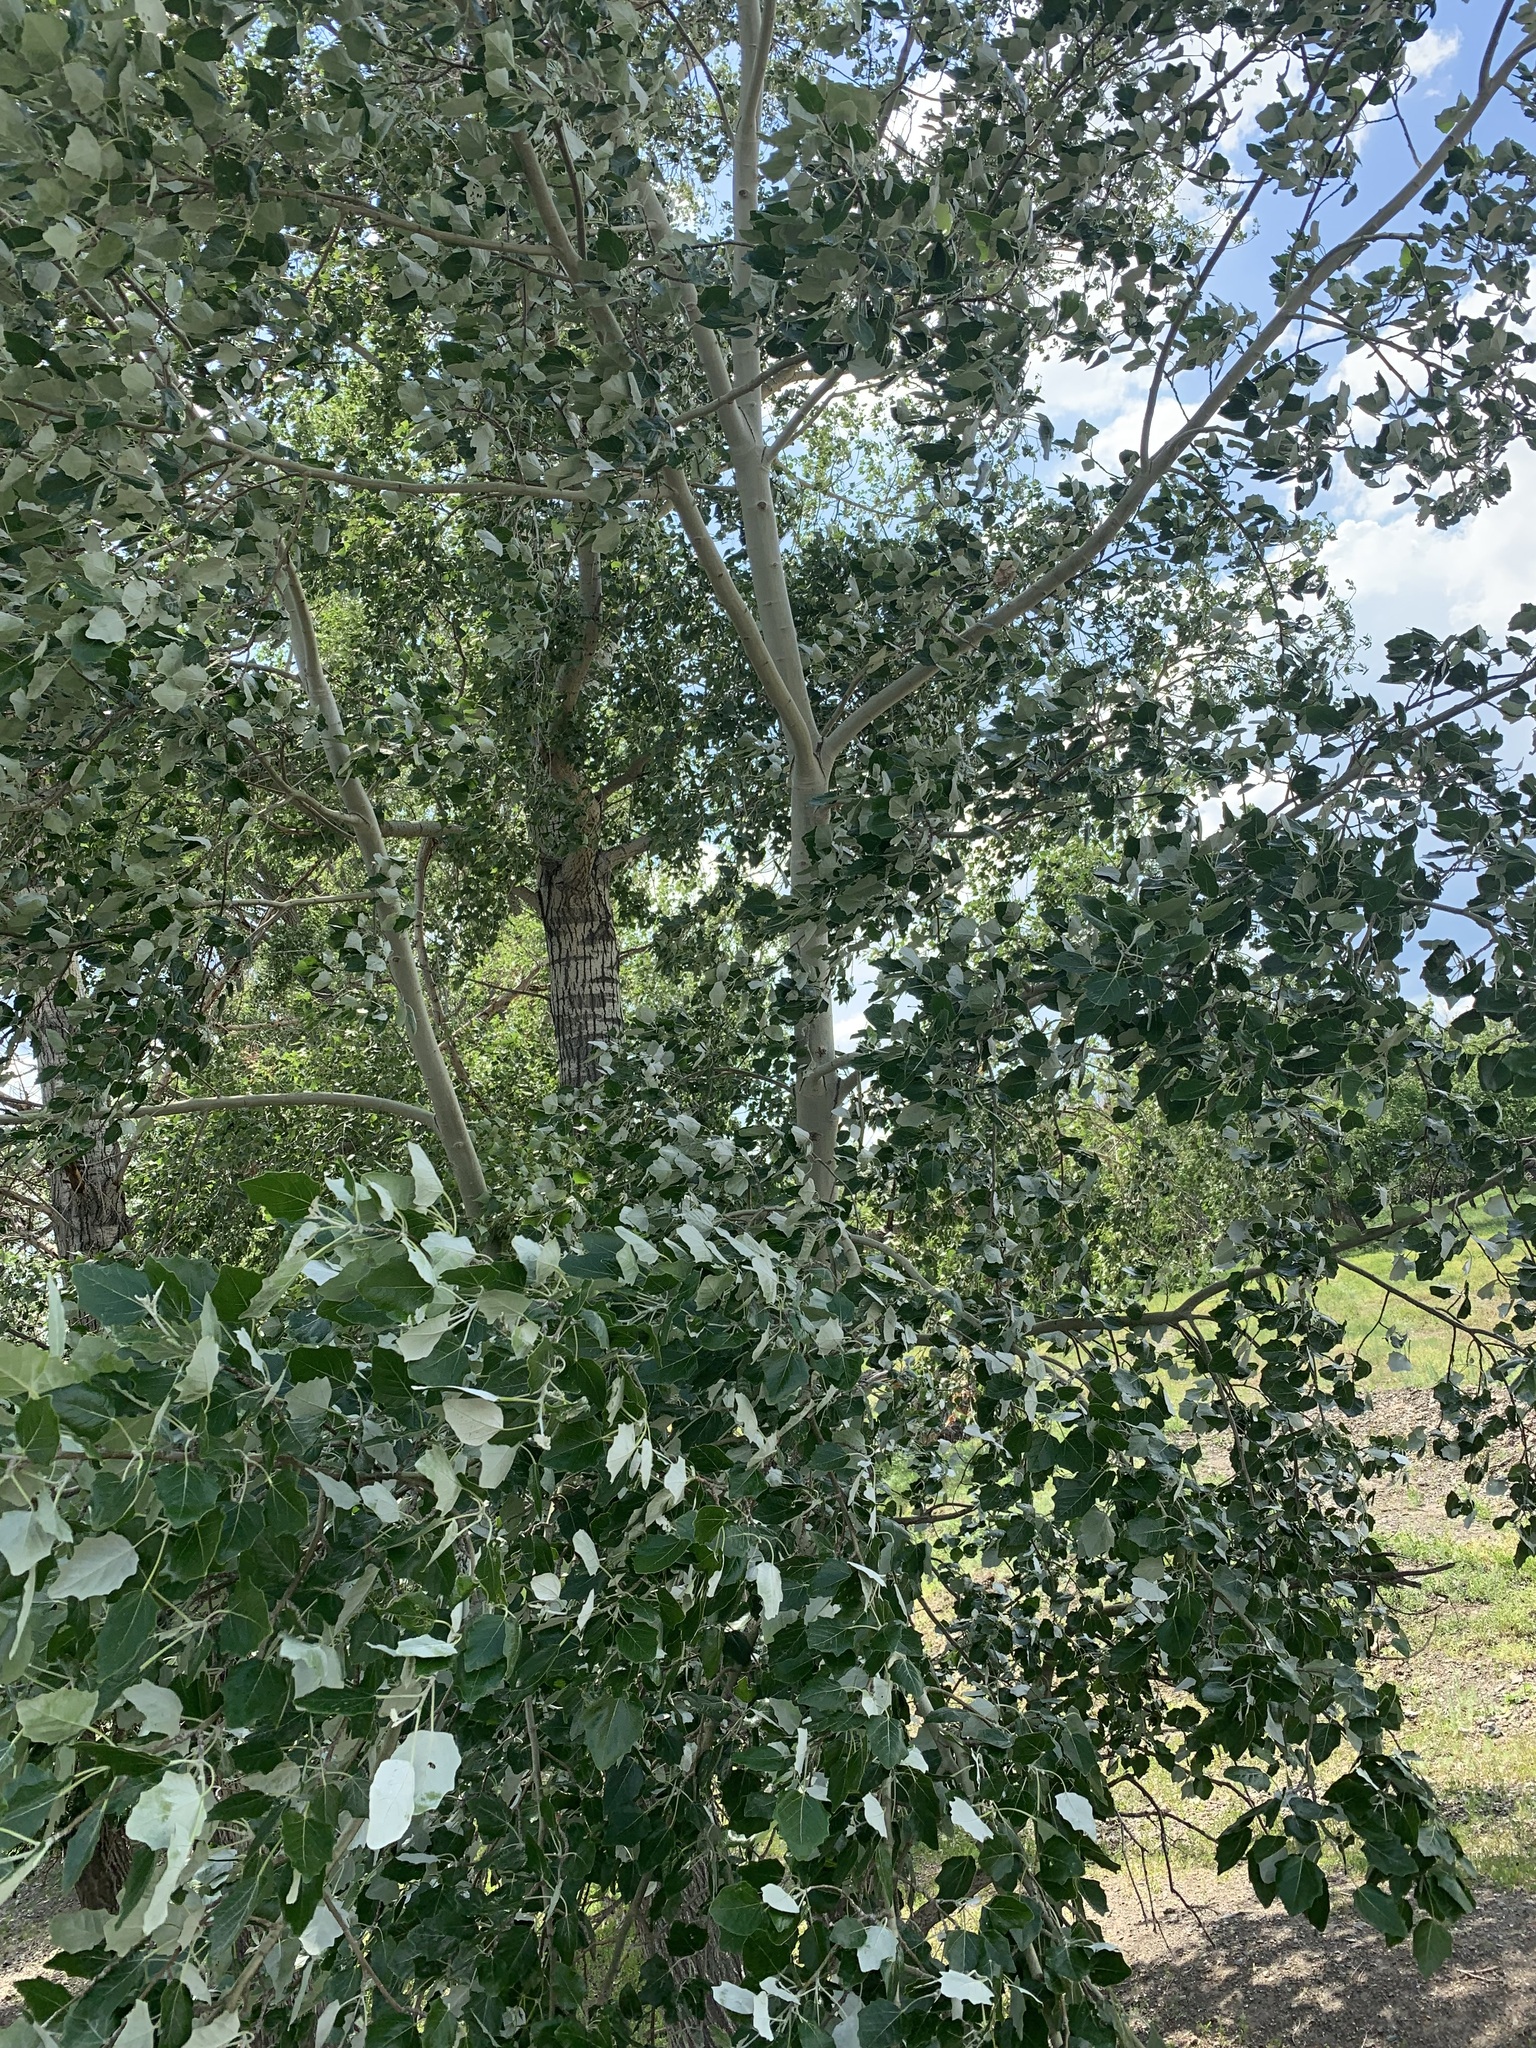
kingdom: Plantae
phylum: Tracheophyta
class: Magnoliopsida
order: Malpighiales
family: Salicaceae
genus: Populus
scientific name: Populus alba
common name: White poplar
